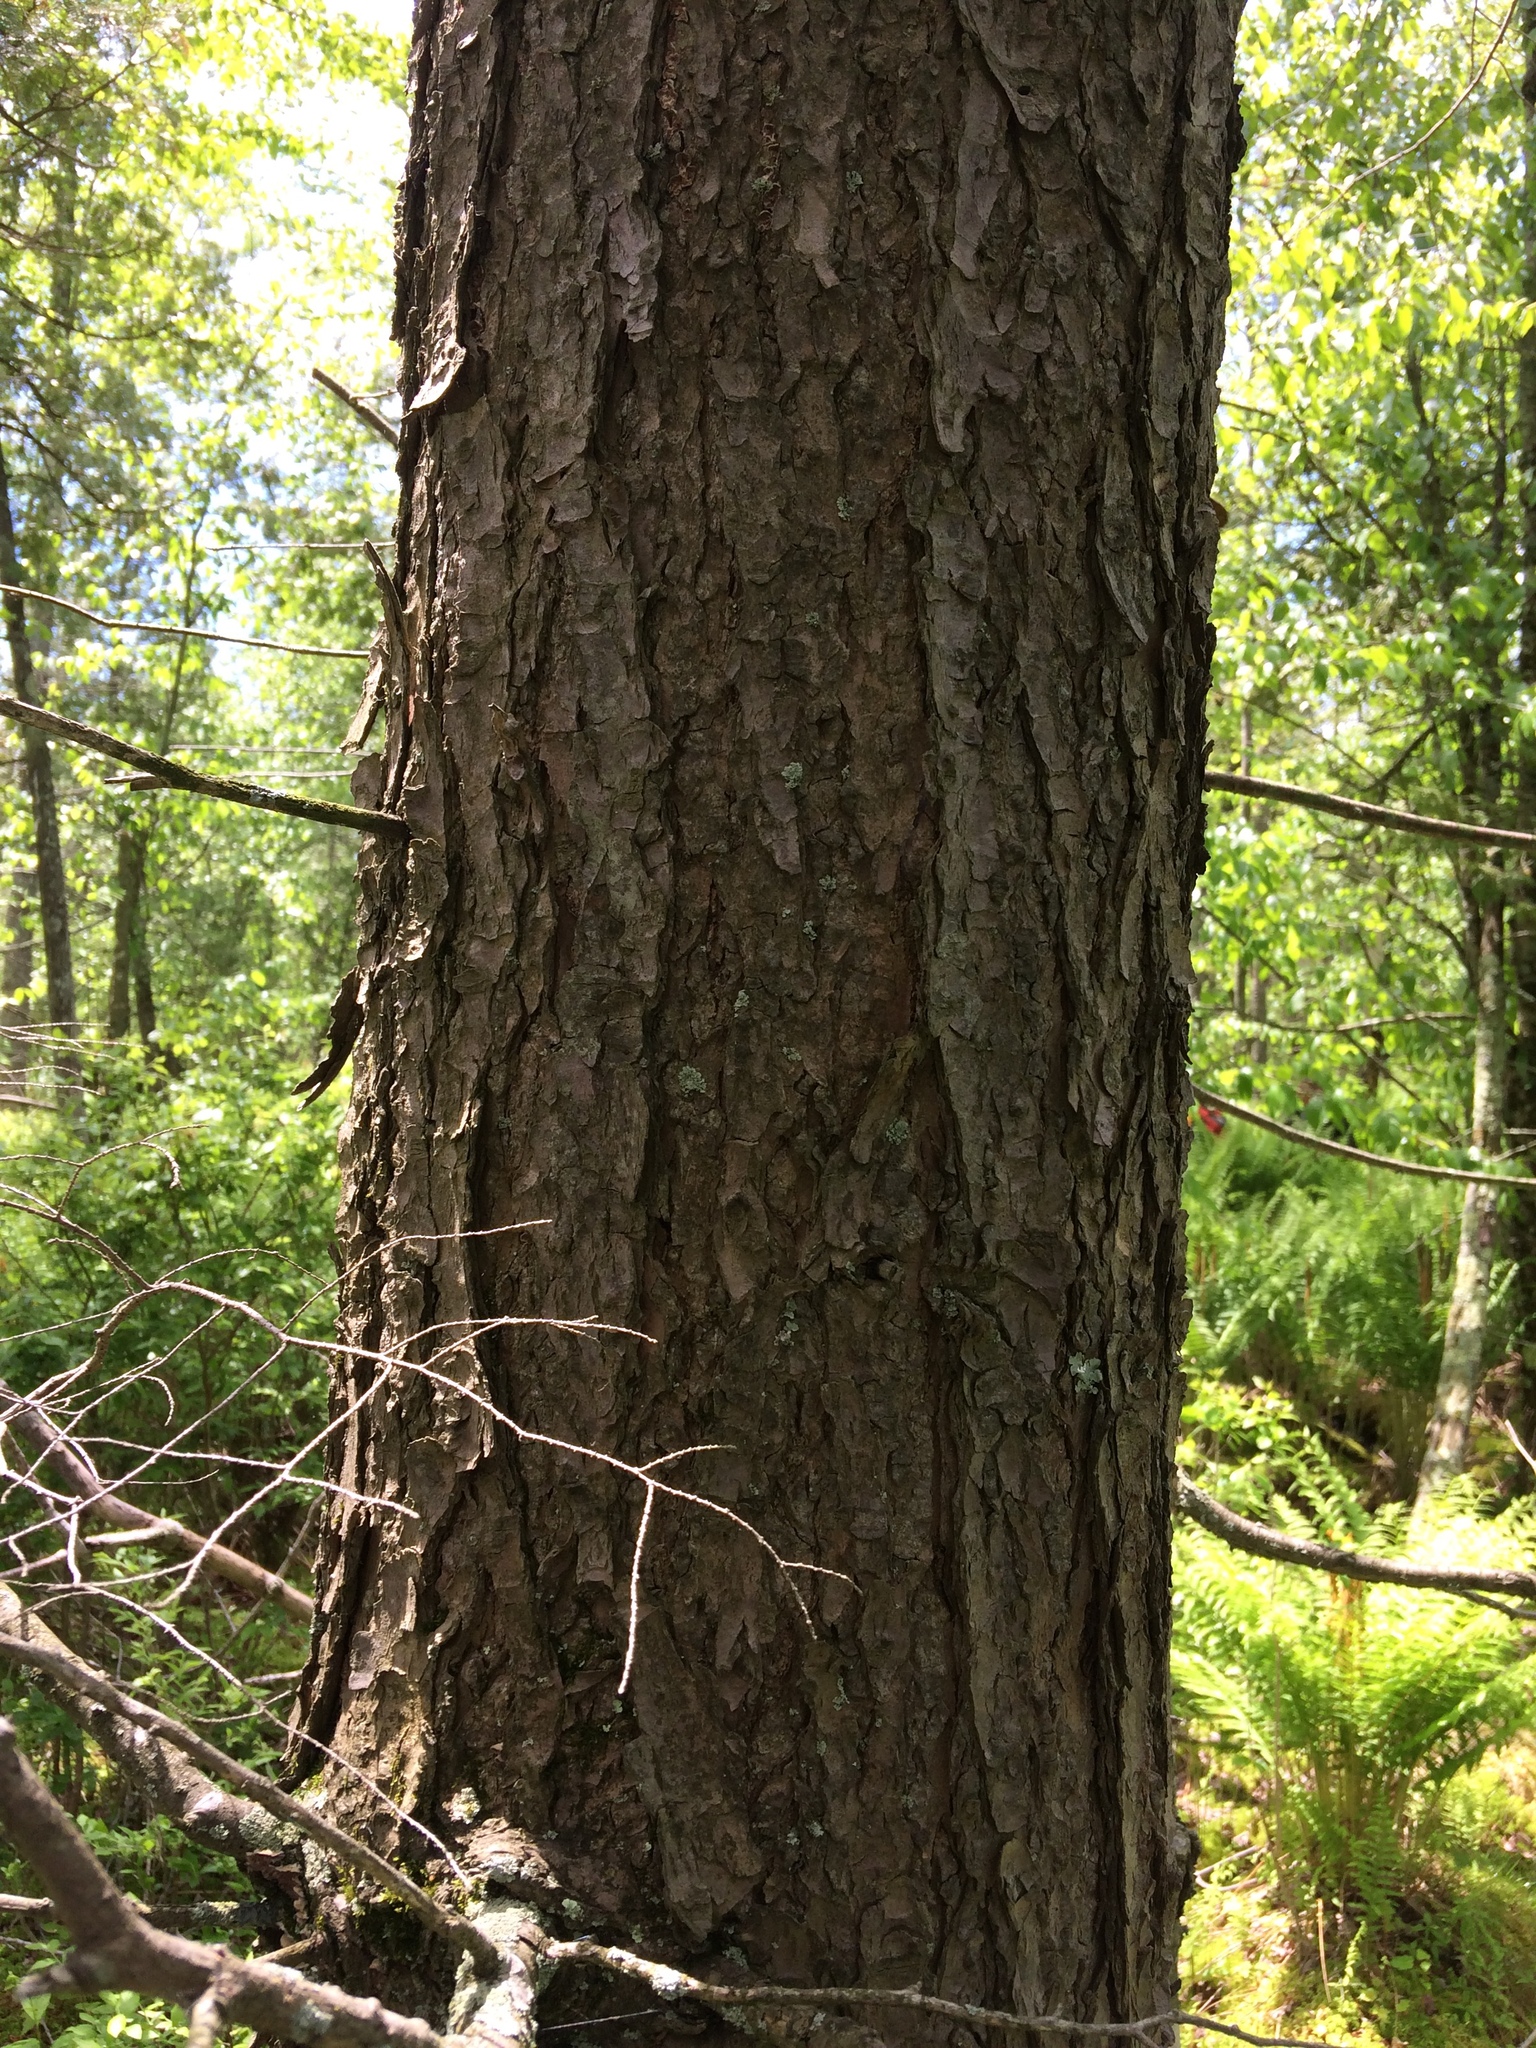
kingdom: Plantae
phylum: Tracheophyta
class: Pinopsida
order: Pinales
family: Pinaceae
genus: Tsuga
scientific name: Tsuga canadensis
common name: Eastern hemlock
